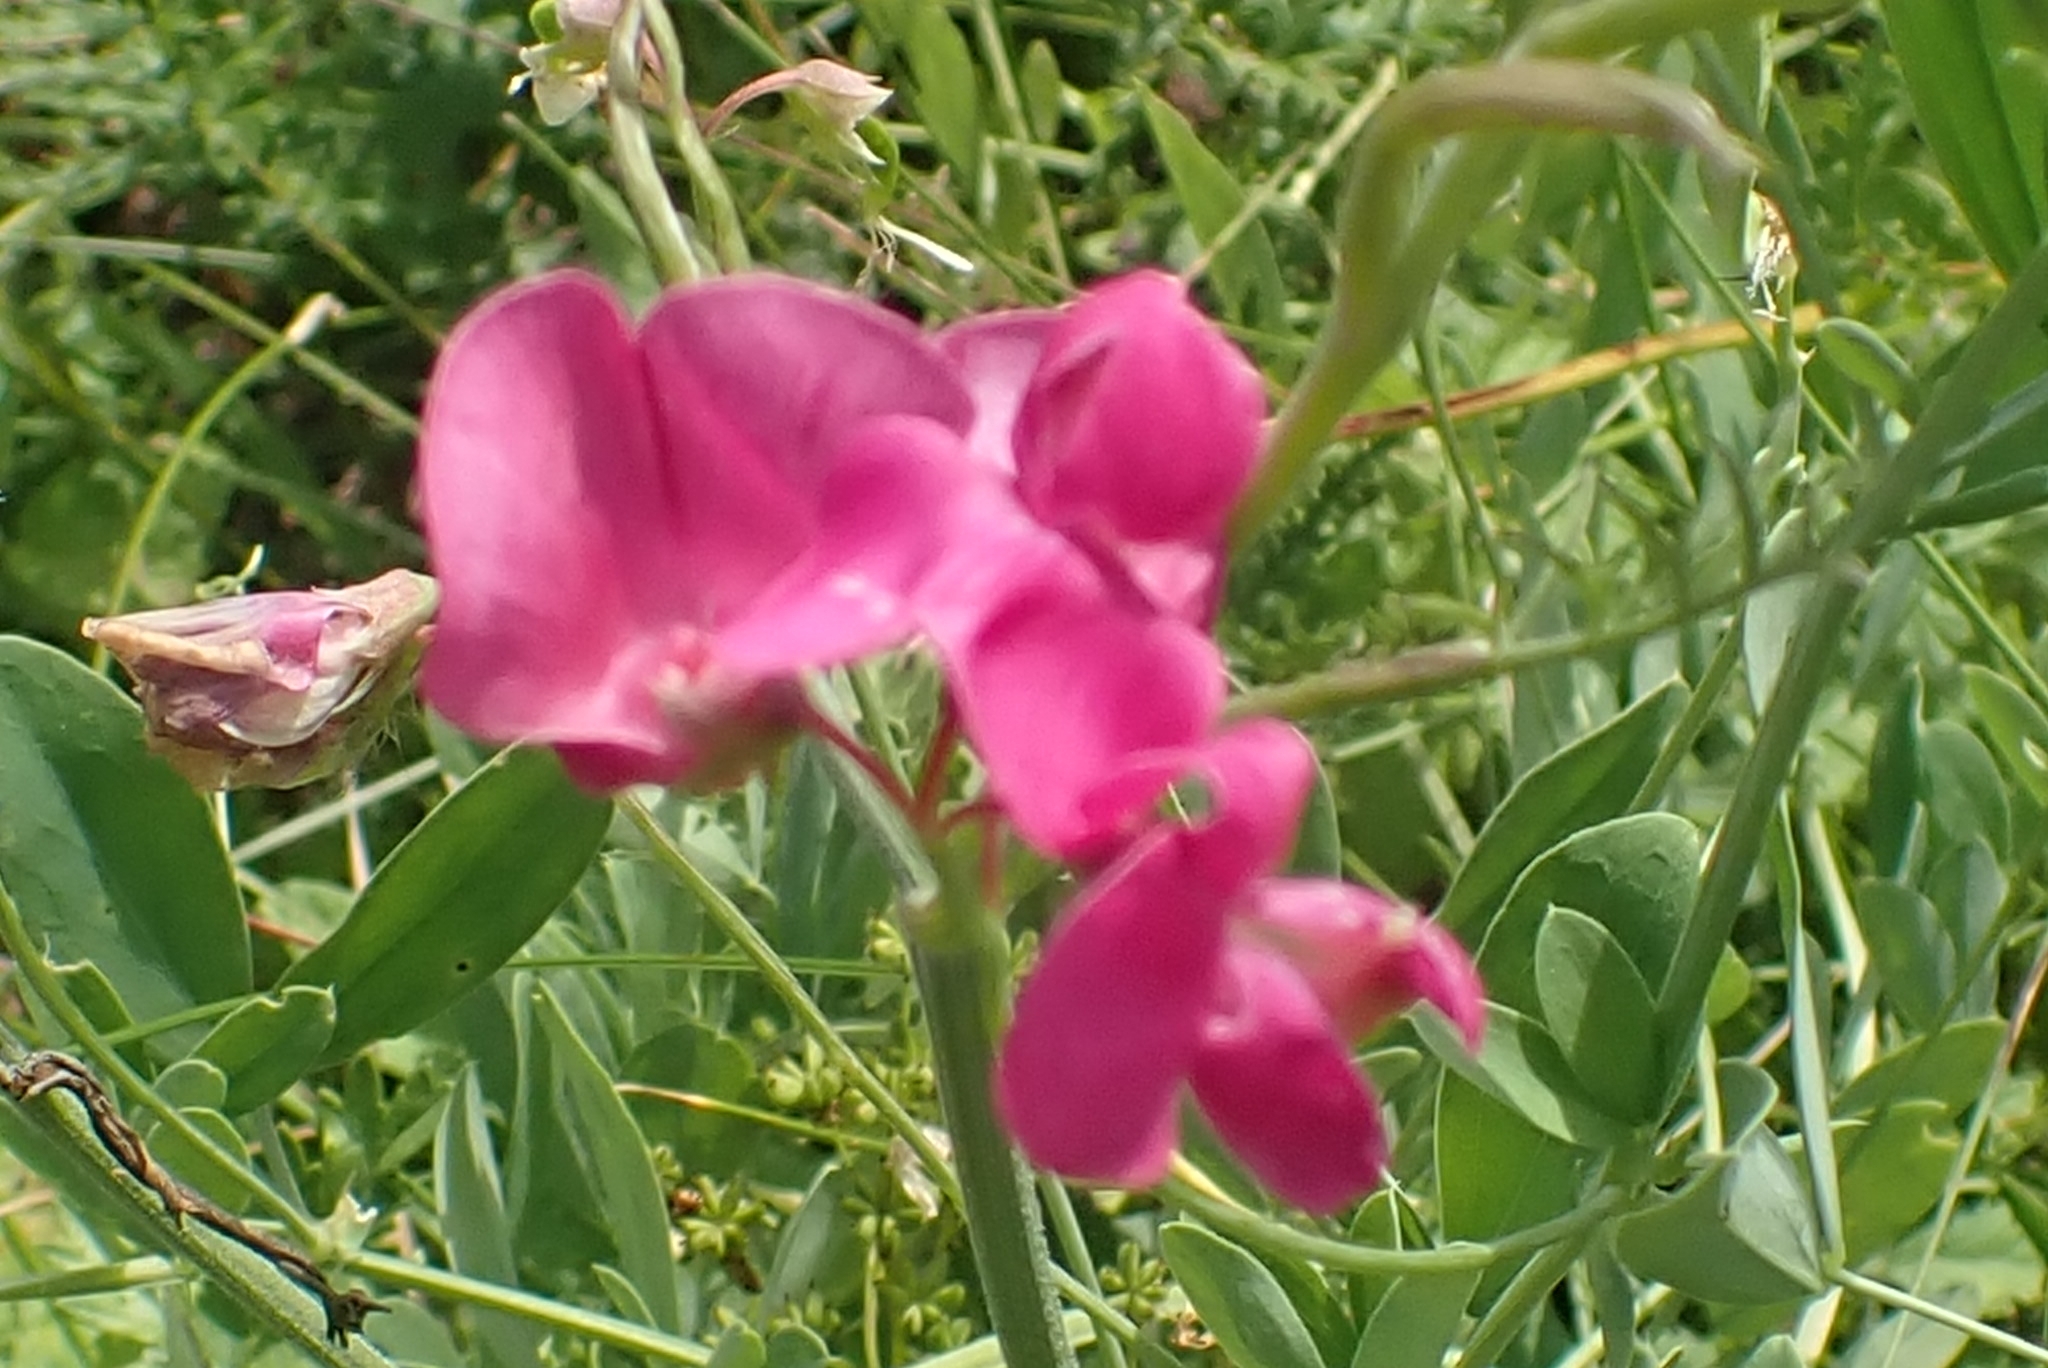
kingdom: Plantae
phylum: Tracheophyta
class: Magnoliopsida
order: Fabales
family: Fabaceae
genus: Lathyrus
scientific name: Lathyrus tuberosus
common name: Tuberous pea
